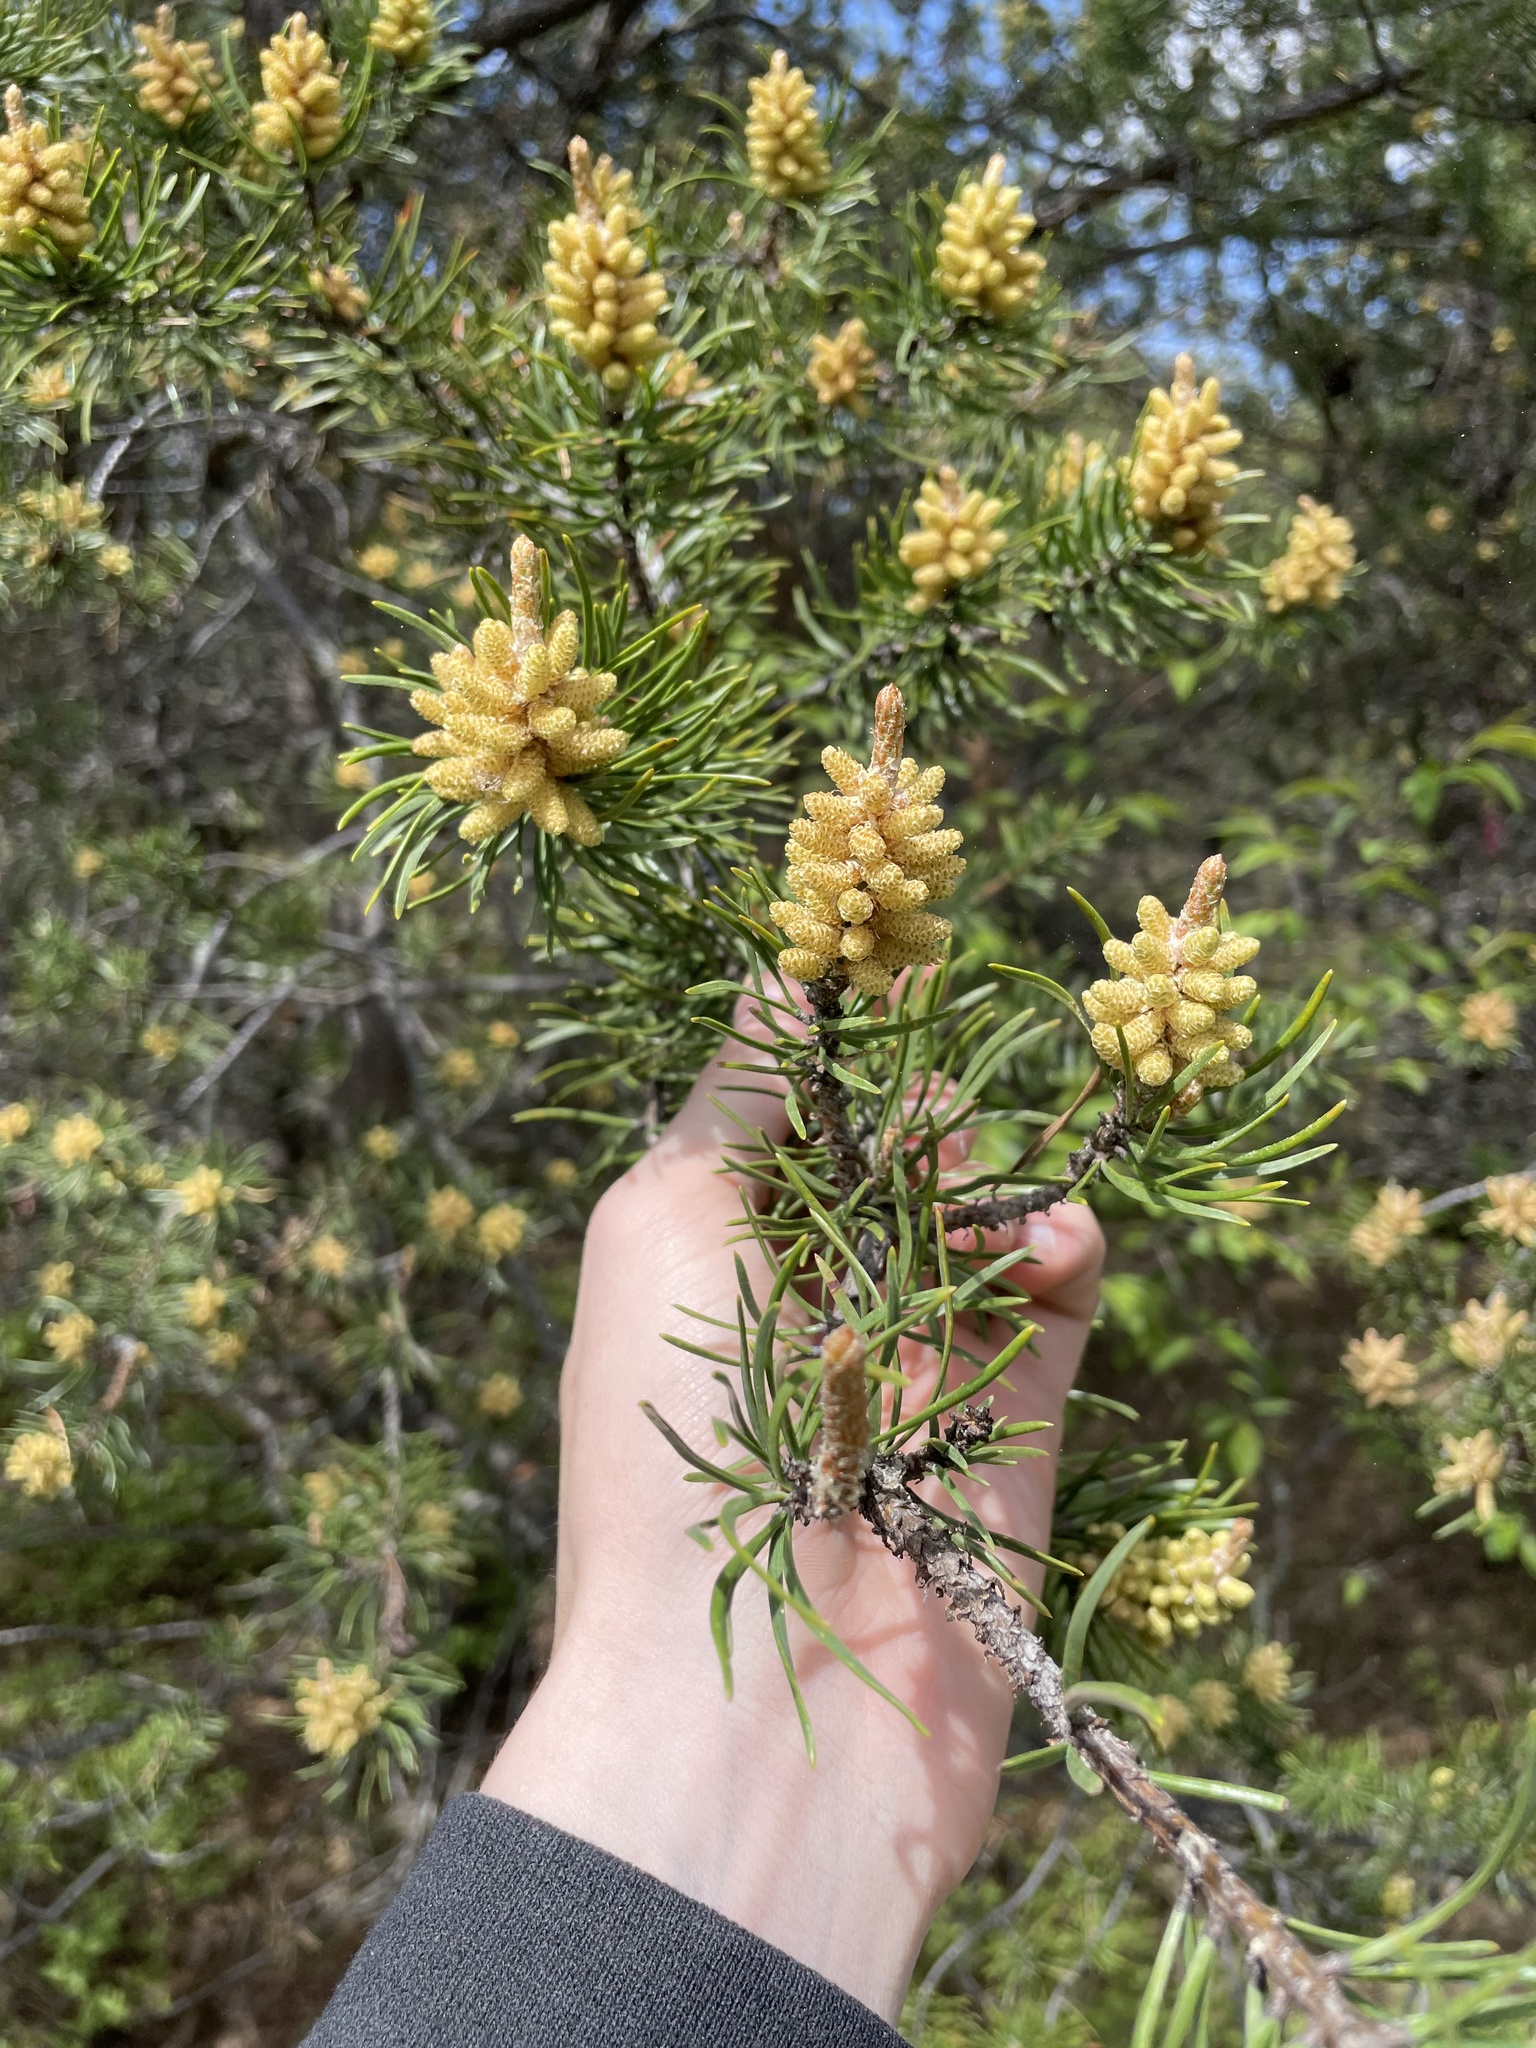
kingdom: Plantae
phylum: Tracheophyta
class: Pinopsida
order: Pinales
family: Pinaceae
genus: Pinus
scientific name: Pinus banksiana
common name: Jack pine
